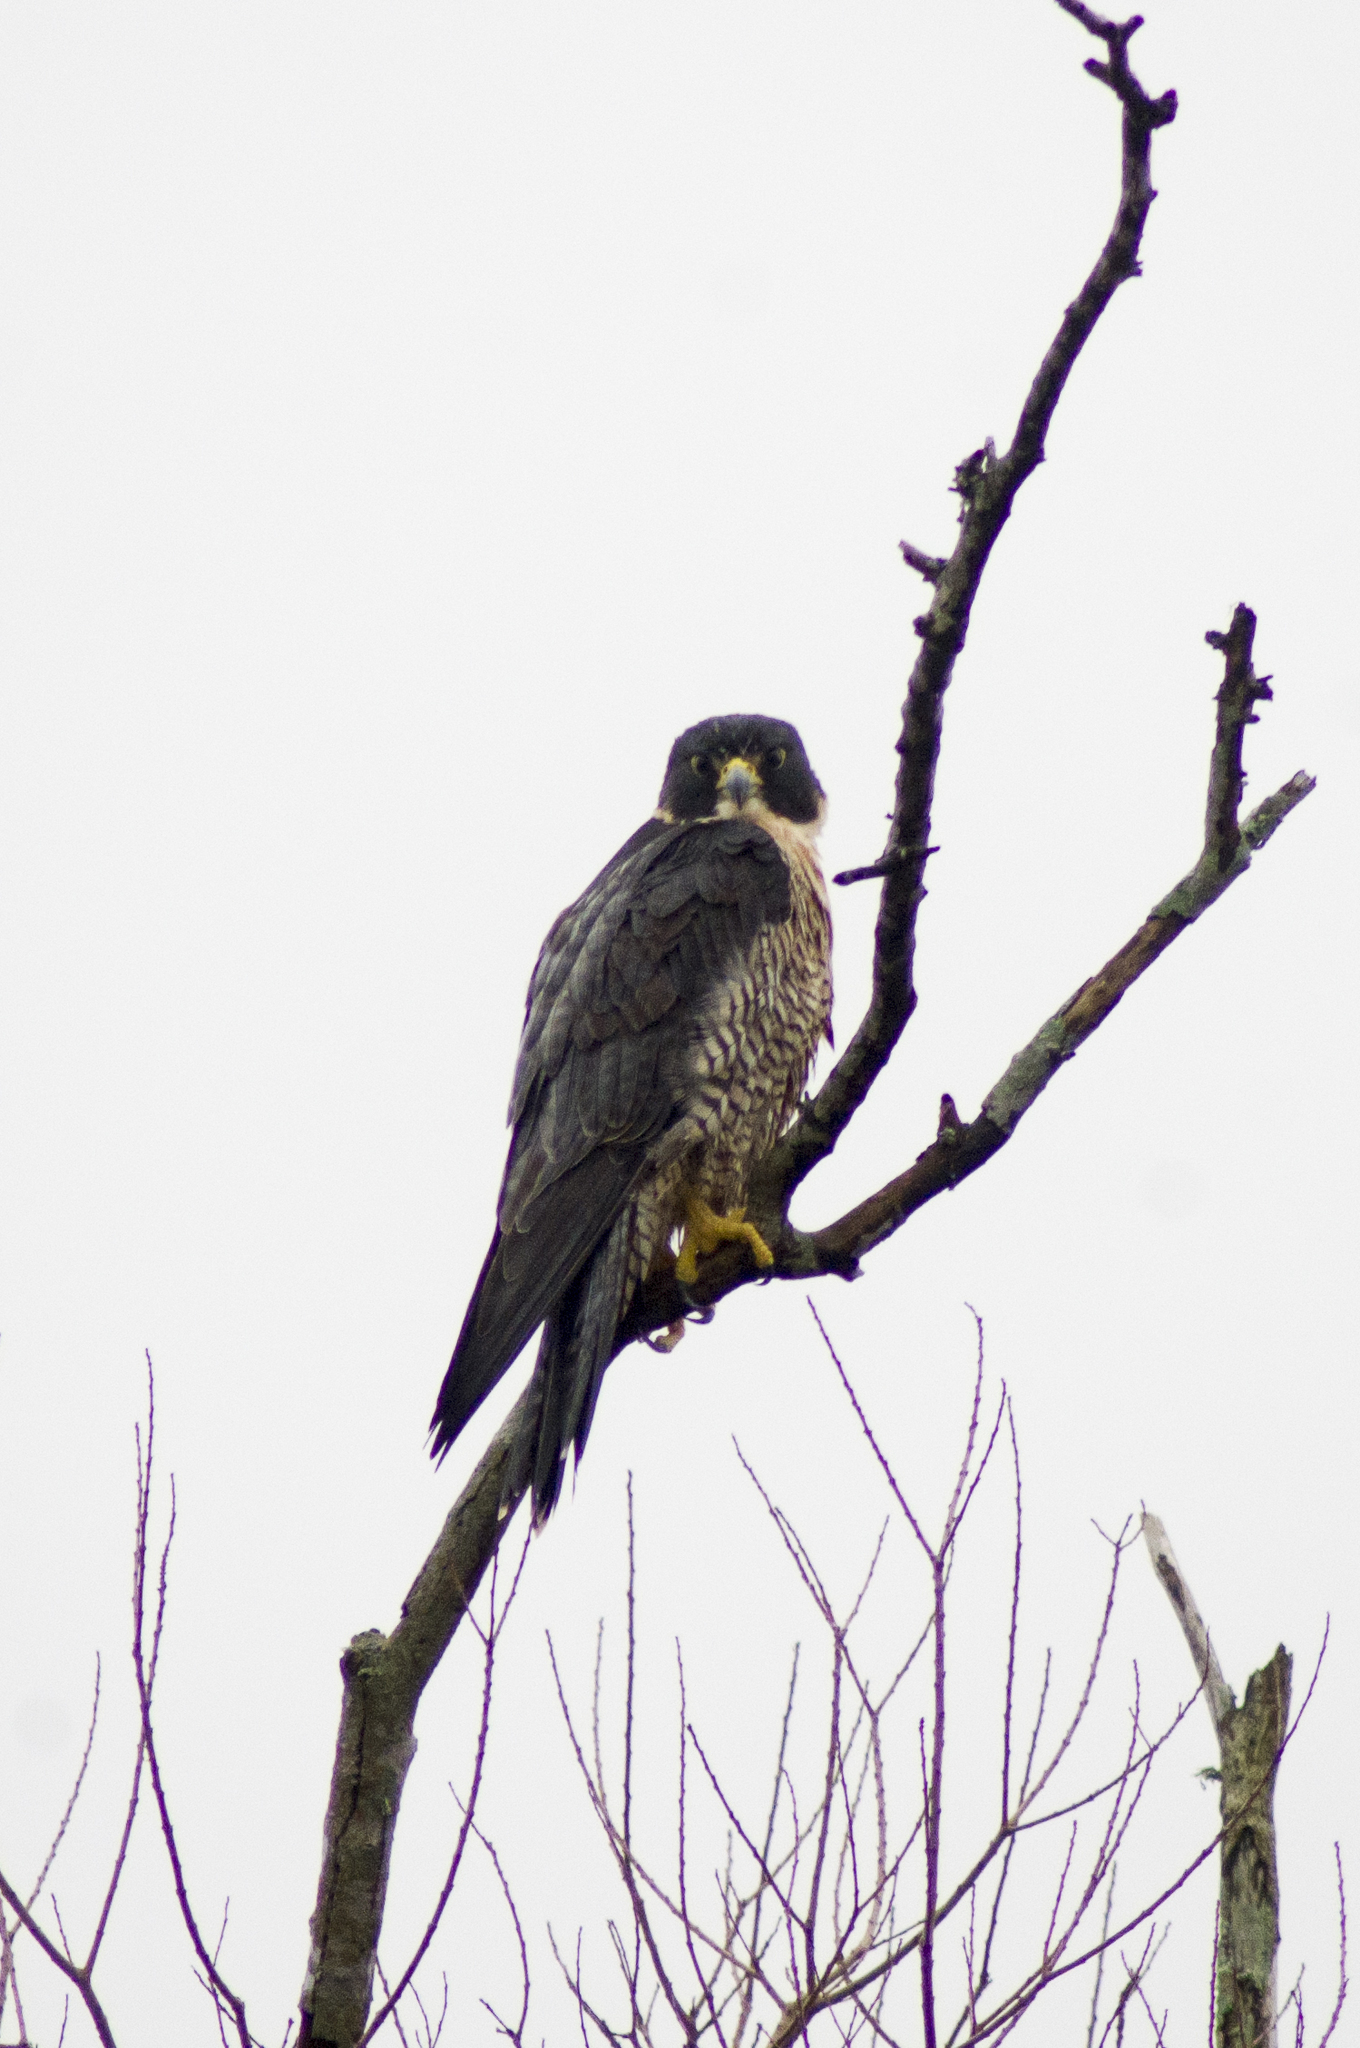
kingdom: Animalia
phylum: Chordata
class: Aves
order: Falconiformes
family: Falconidae
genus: Falco
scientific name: Falco peregrinus
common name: Peregrine falcon
